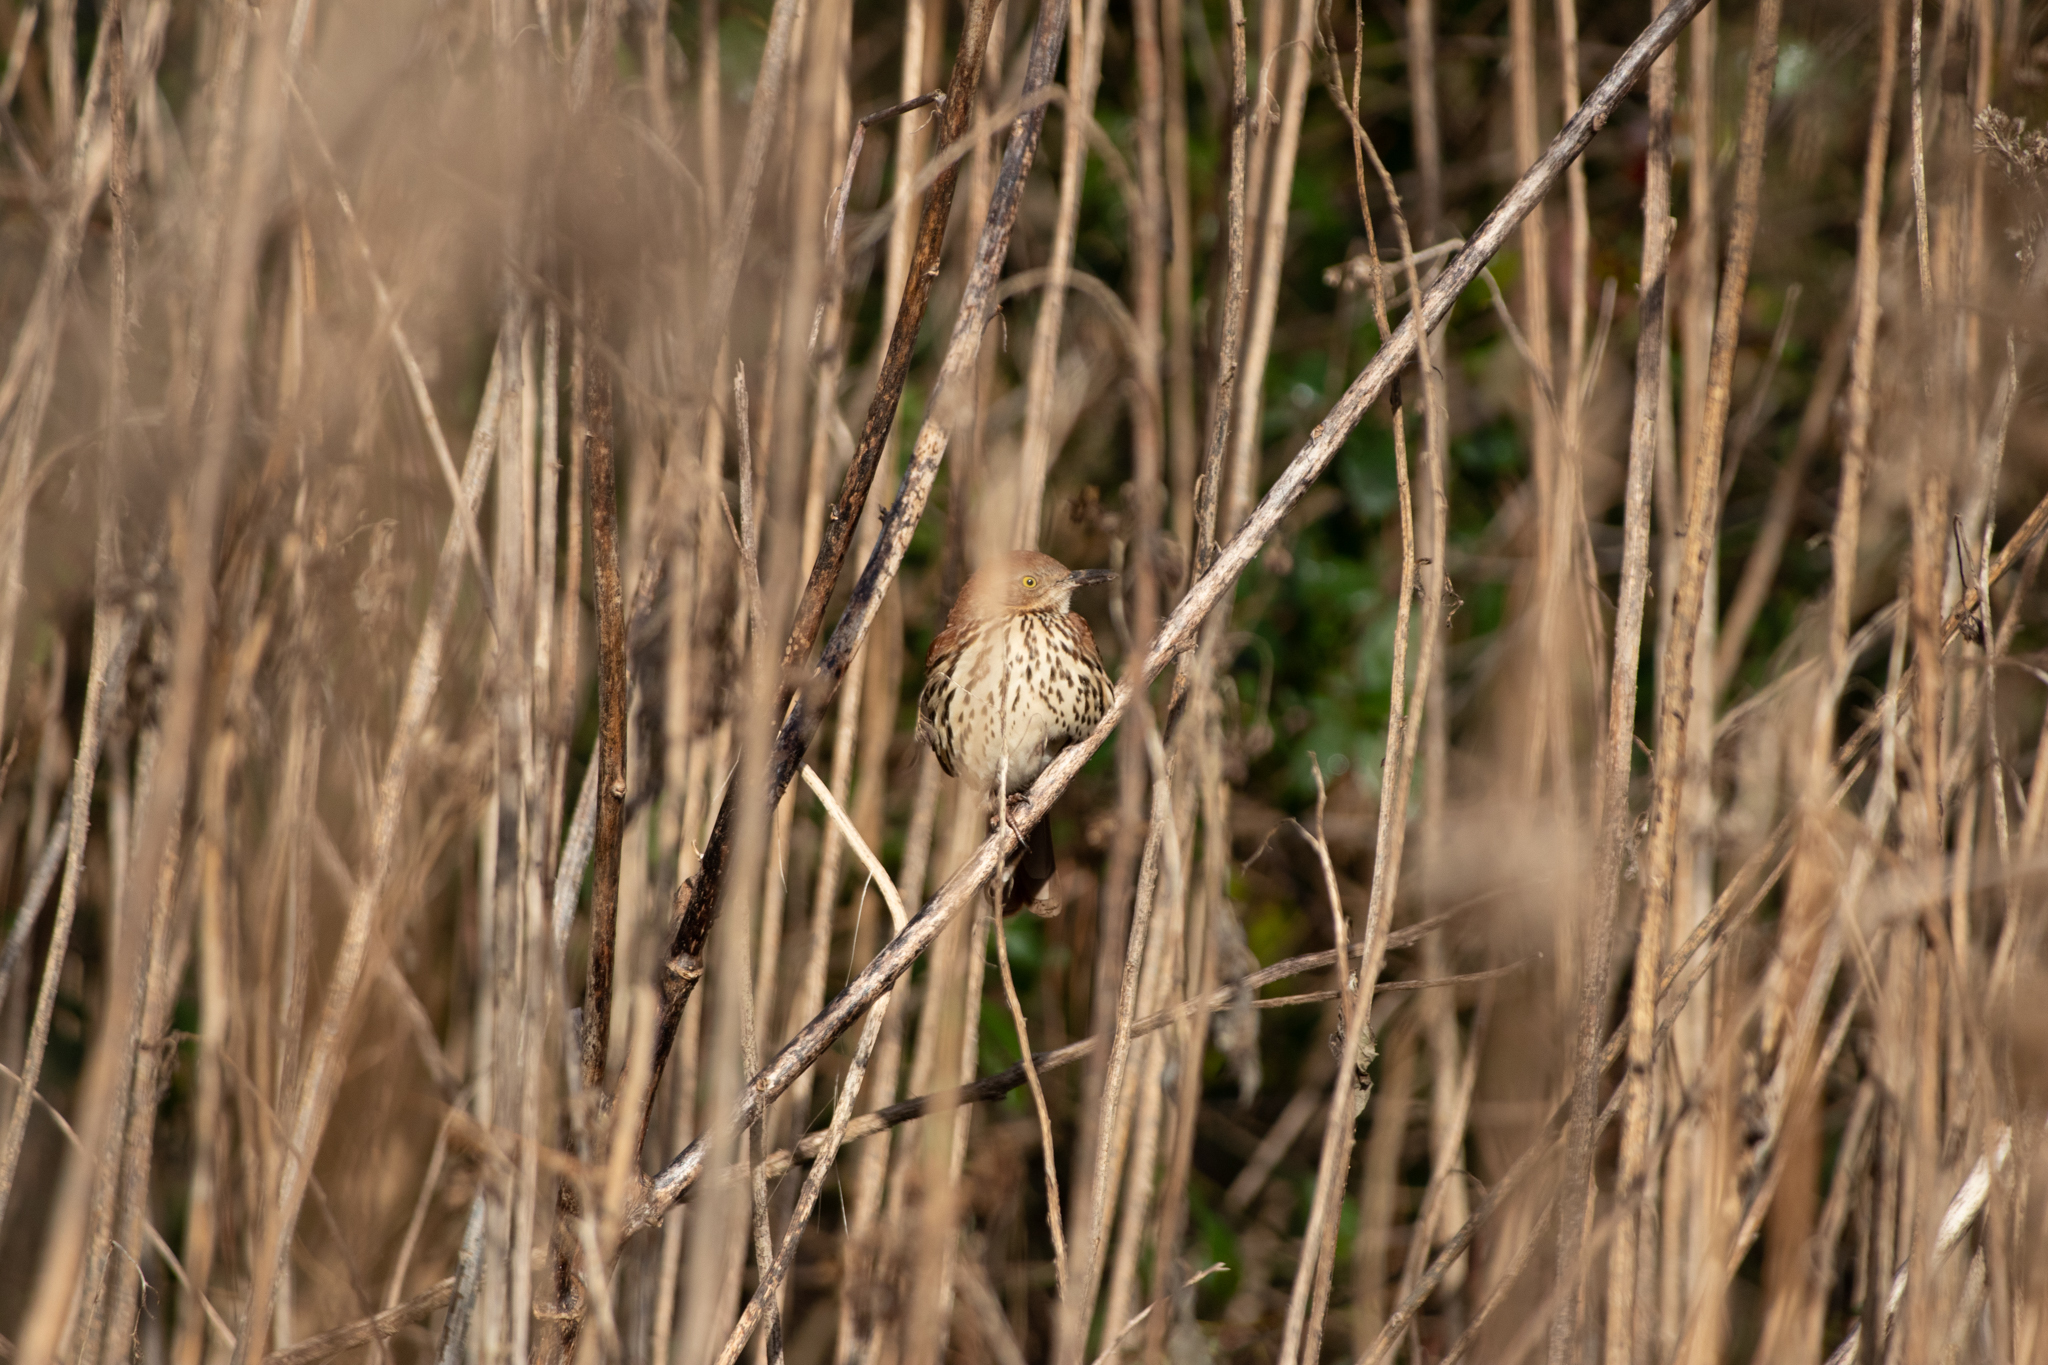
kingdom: Animalia
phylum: Chordata
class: Aves
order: Passeriformes
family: Mimidae
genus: Toxostoma
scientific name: Toxostoma rufum
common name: Brown thrasher
